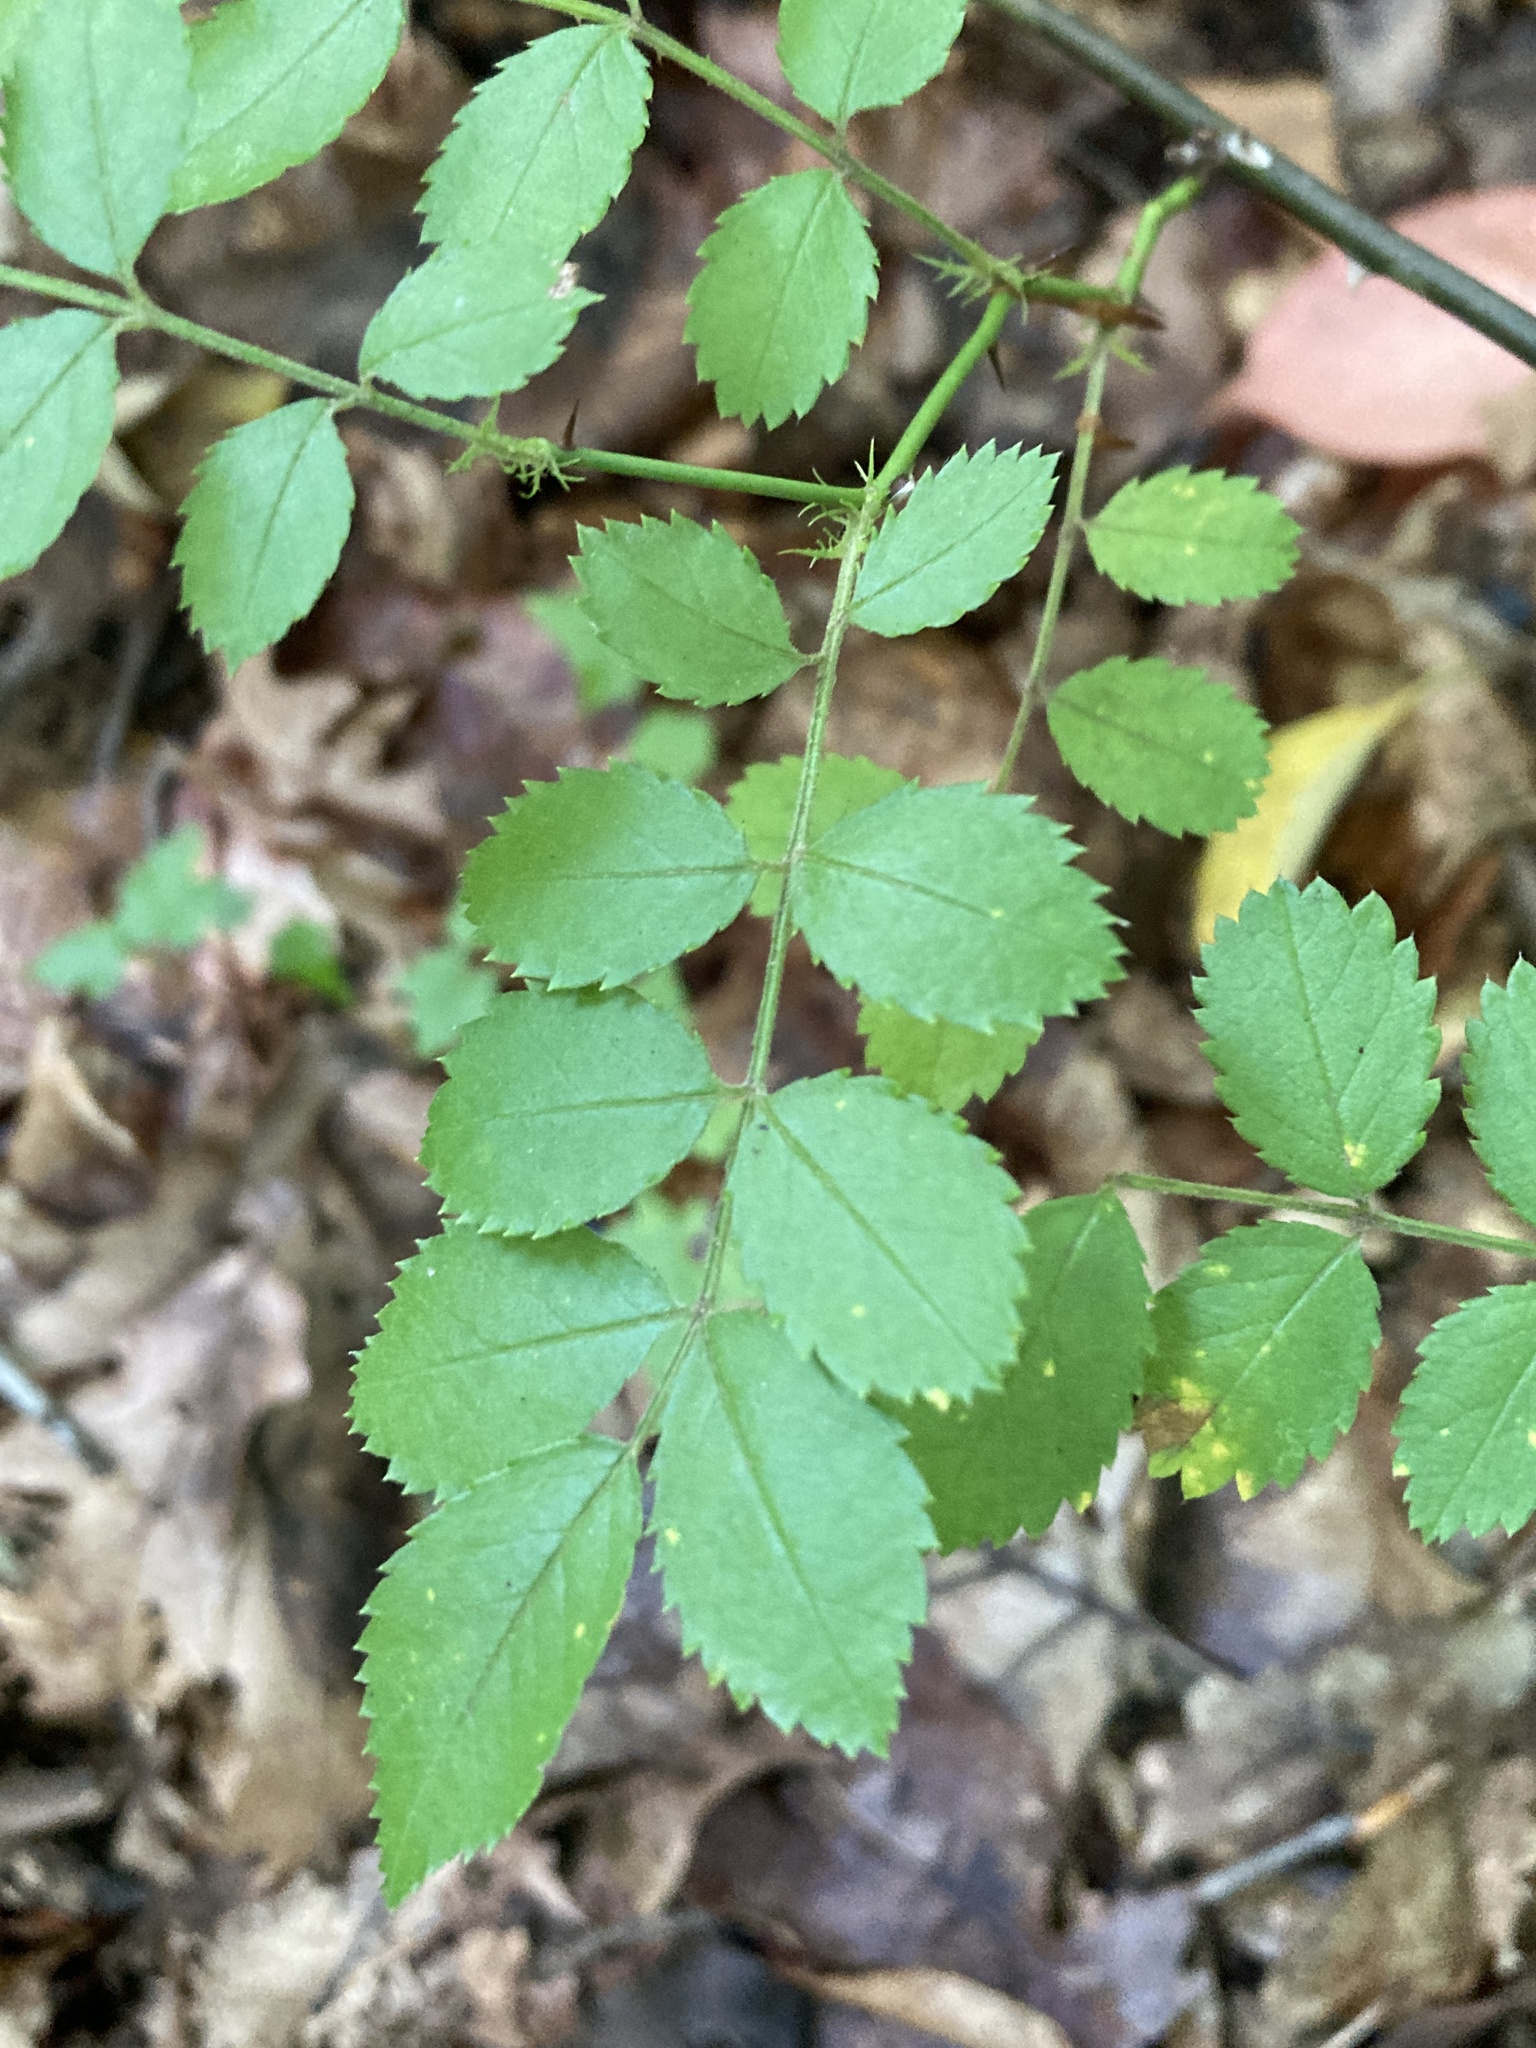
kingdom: Plantae
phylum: Tracheophyta
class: Magnoliopsida
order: Rosales
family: Rosaceae
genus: Rosa
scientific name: Rosa multiflora
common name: Multiflora rose
